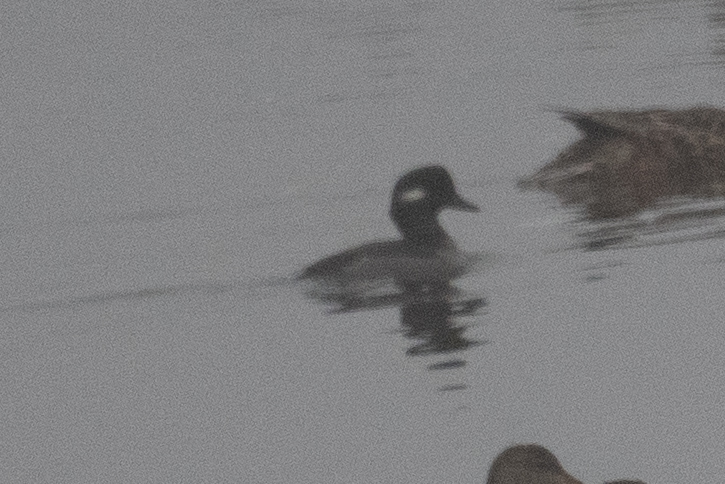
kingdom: Animalia
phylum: Chordata
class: Aves
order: Anseriformes
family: Anatidae
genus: Bucephala
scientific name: Bucephala albeola
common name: Bufflehead
